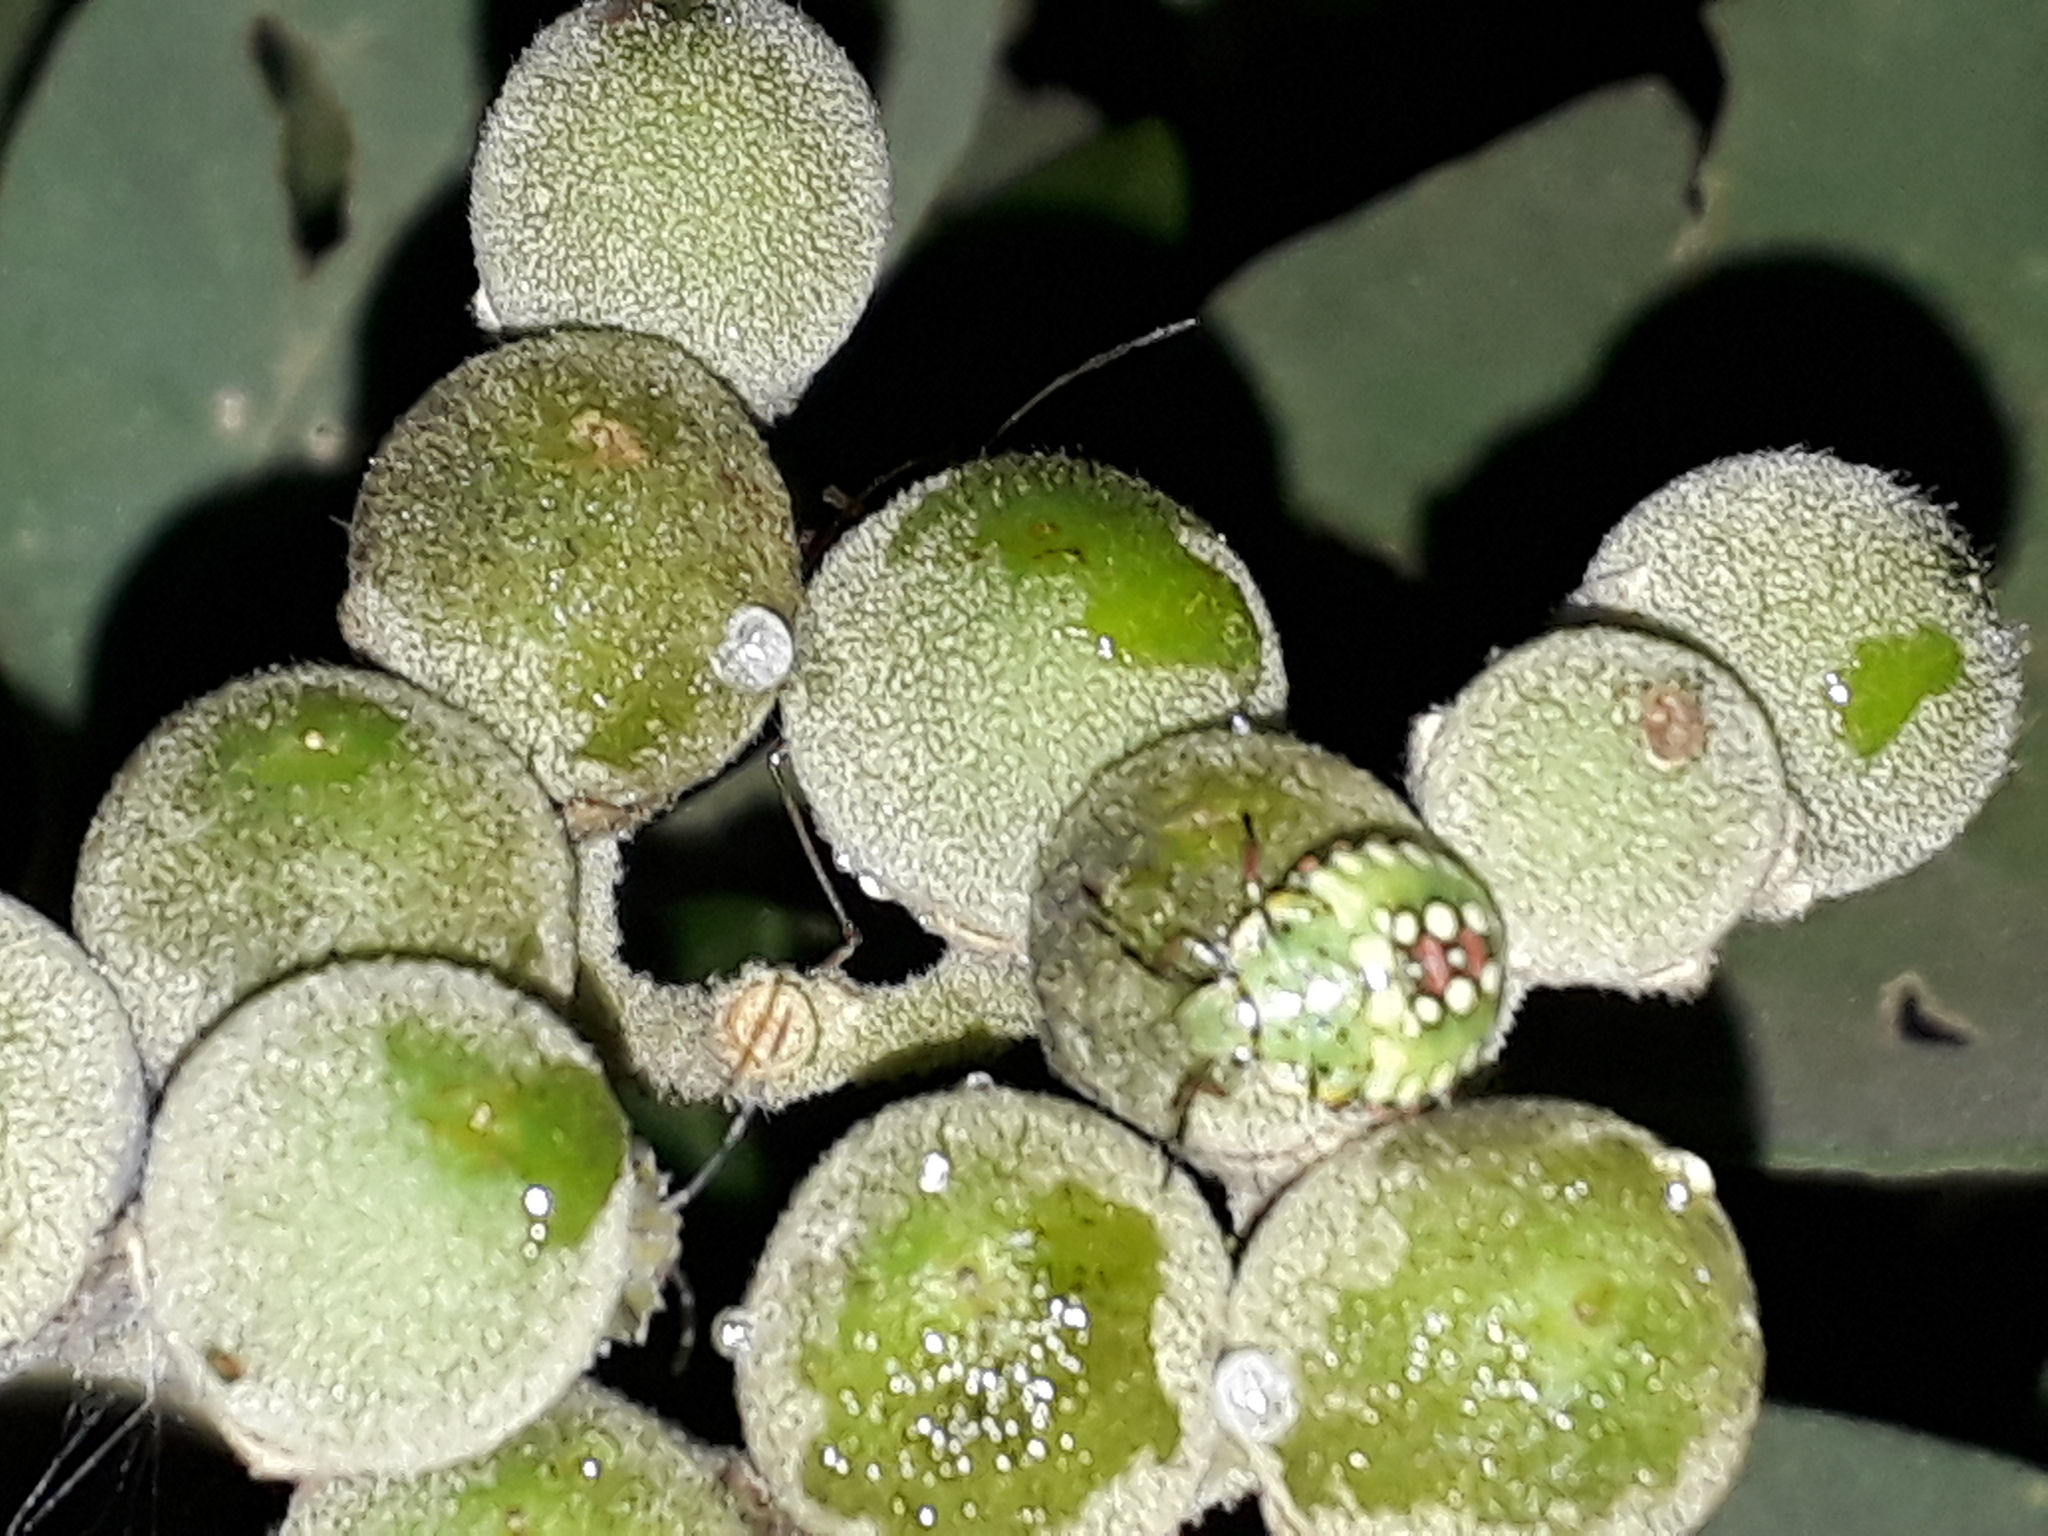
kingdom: Animalia
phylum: Arthropoda
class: Insecta
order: Hemiptera
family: Pentatomidae
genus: Nezara
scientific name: Nezara viridula
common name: Southern green stink bug
